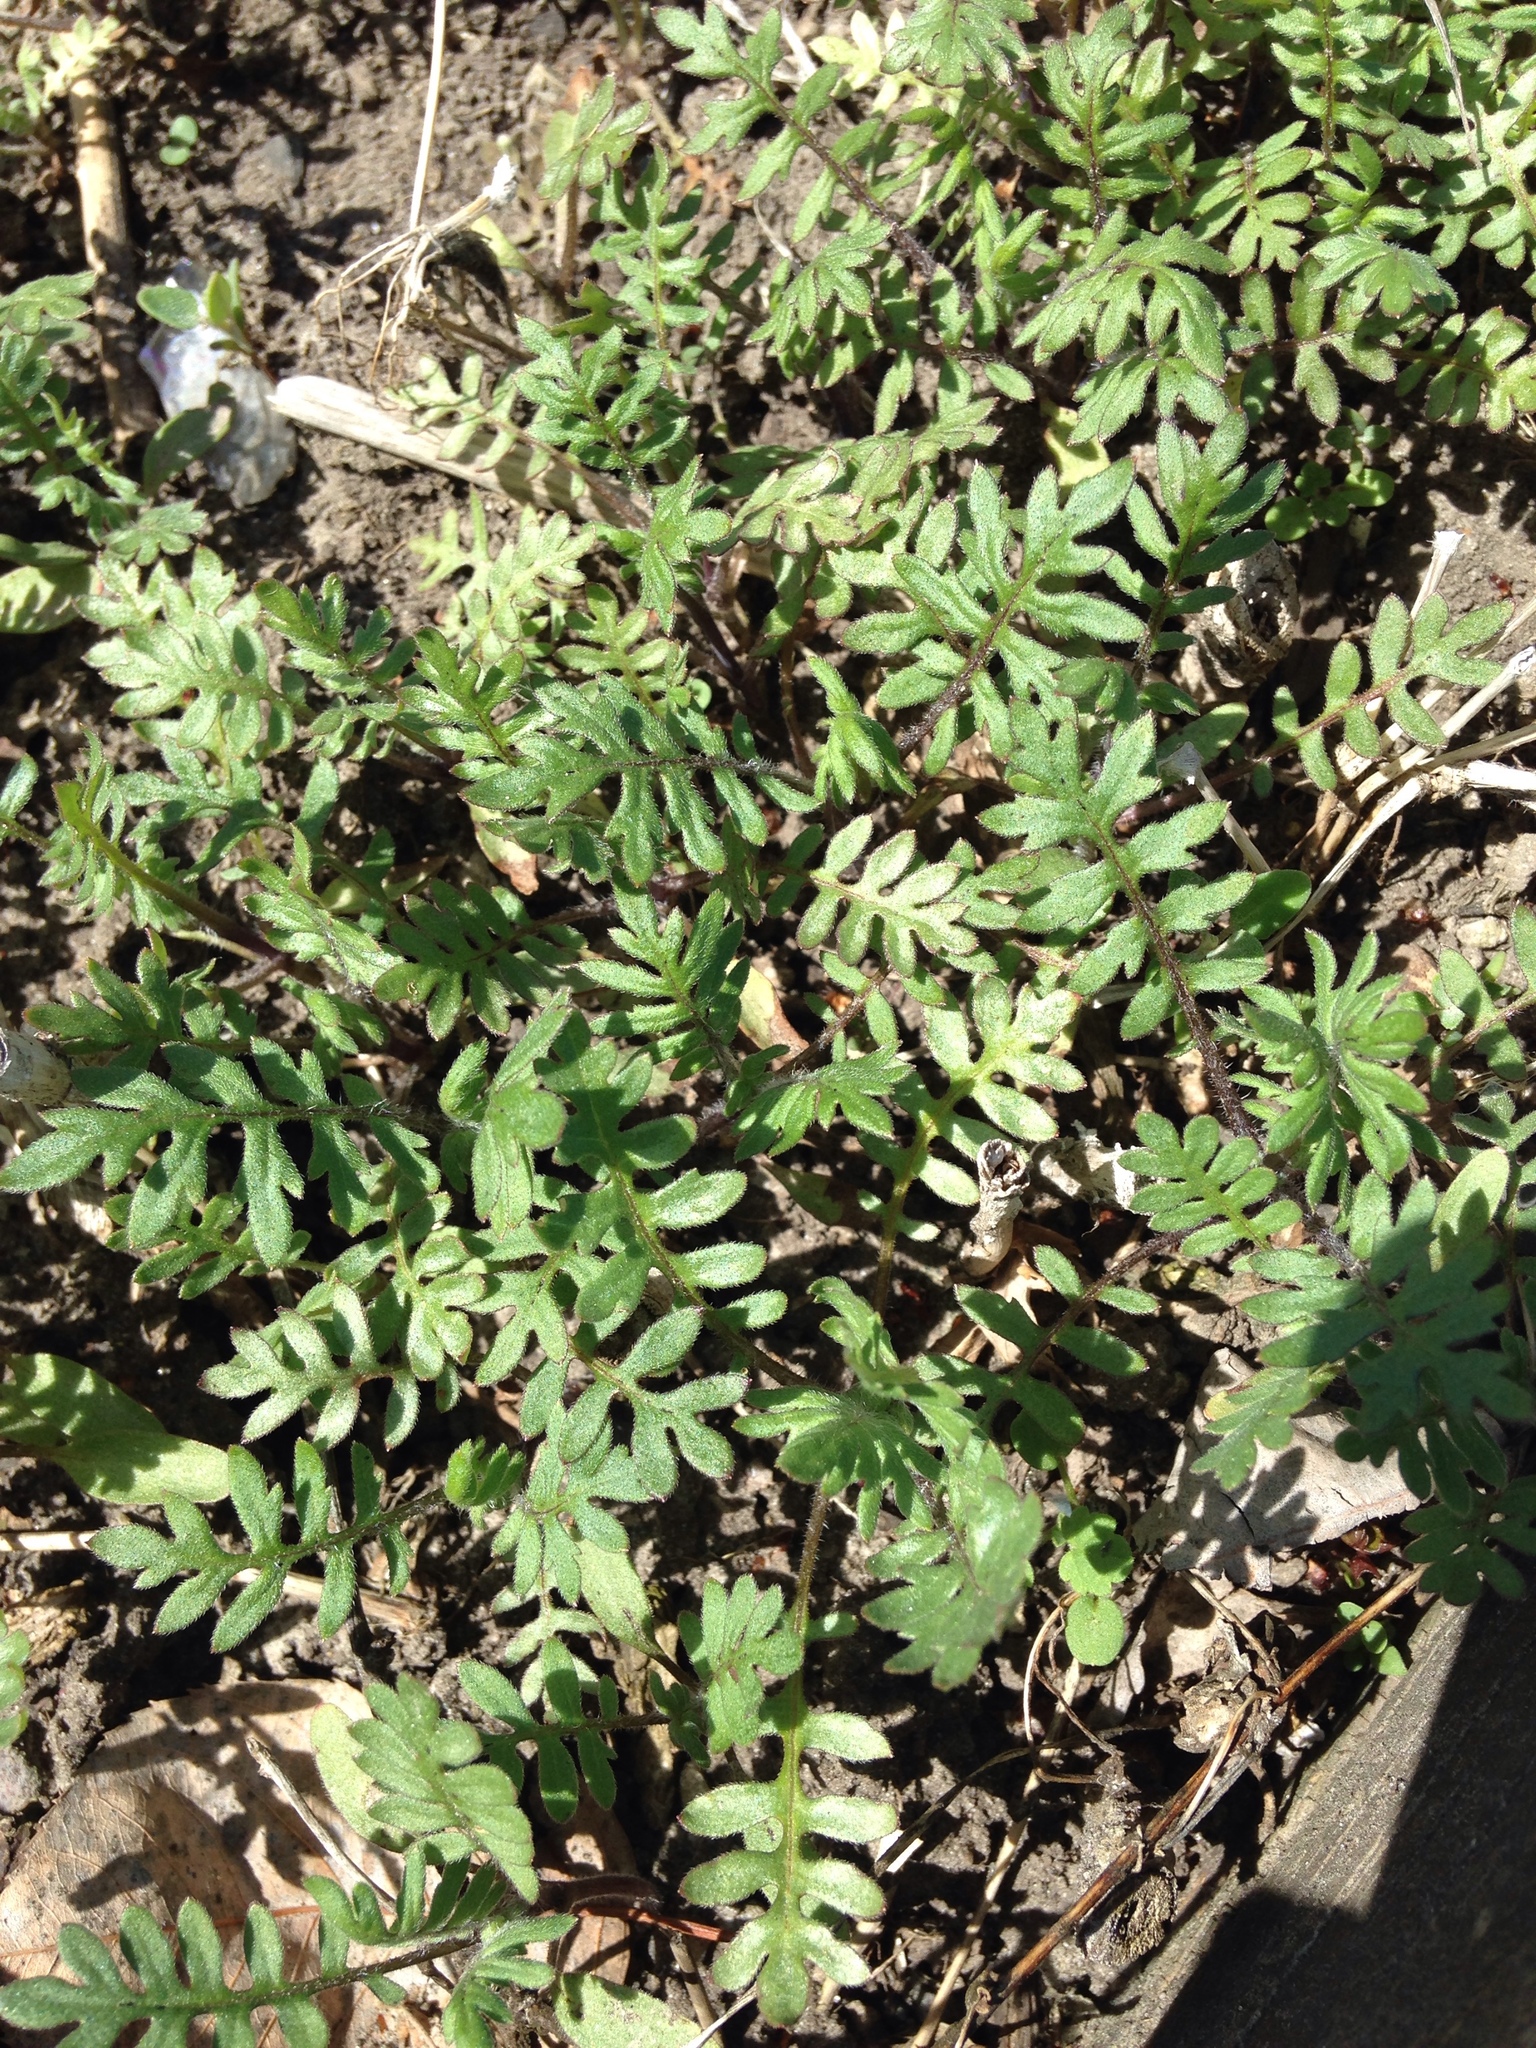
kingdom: Plantae
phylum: Tracheophyta
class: Magnoliopsida
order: Boraginales
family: Hydrophyllaceae
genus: Ellisia
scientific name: Ellisia nyctelea
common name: Aunt lucy
